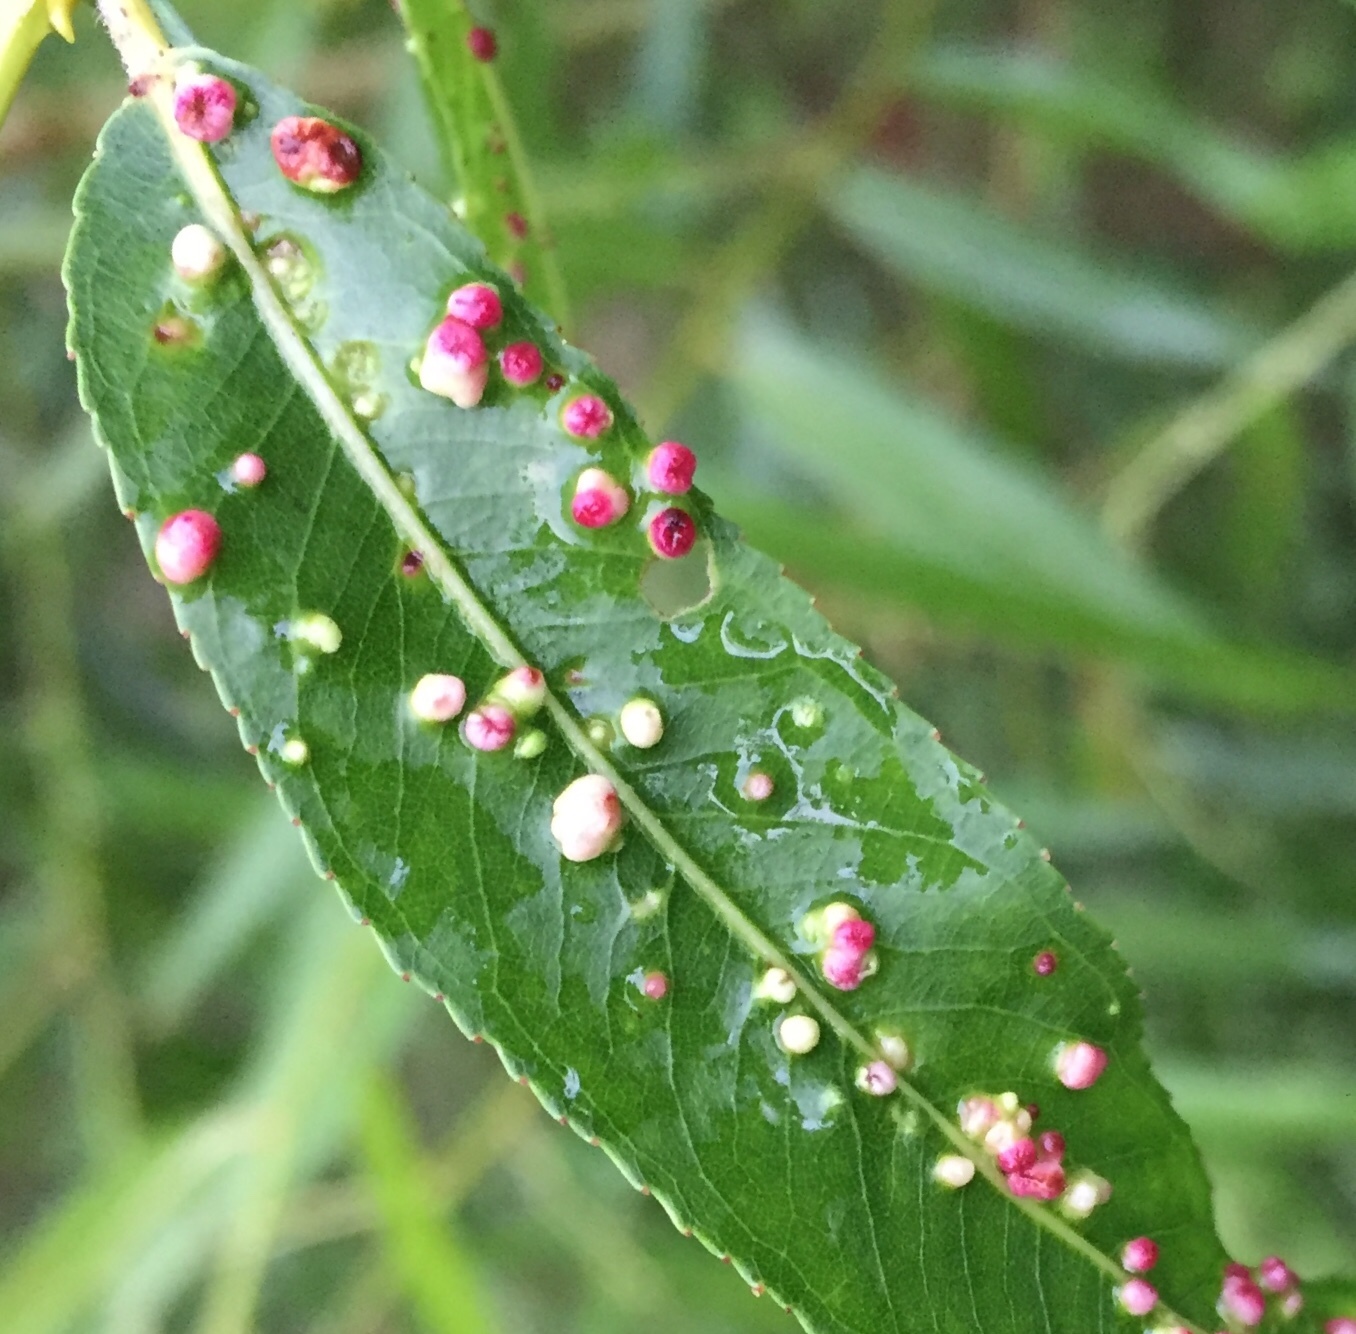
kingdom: Animalia
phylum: Arthropoda
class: Arachnida
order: Trombidiformes
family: Eriophyidae
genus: Aculus
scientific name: Aculus tetanothrix
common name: Willow bead gall mite
